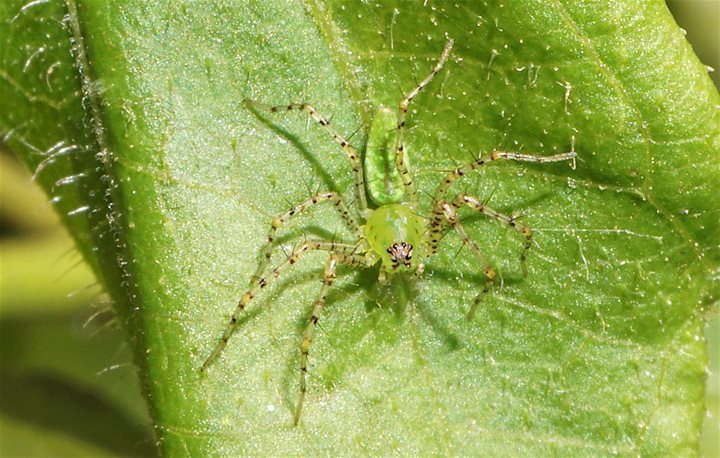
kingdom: Animalia
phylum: Arthropoda
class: Arachnida
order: Araneae
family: Oxyopidae
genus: Peucetia
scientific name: Peucetia viridans
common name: Lynx spiders
